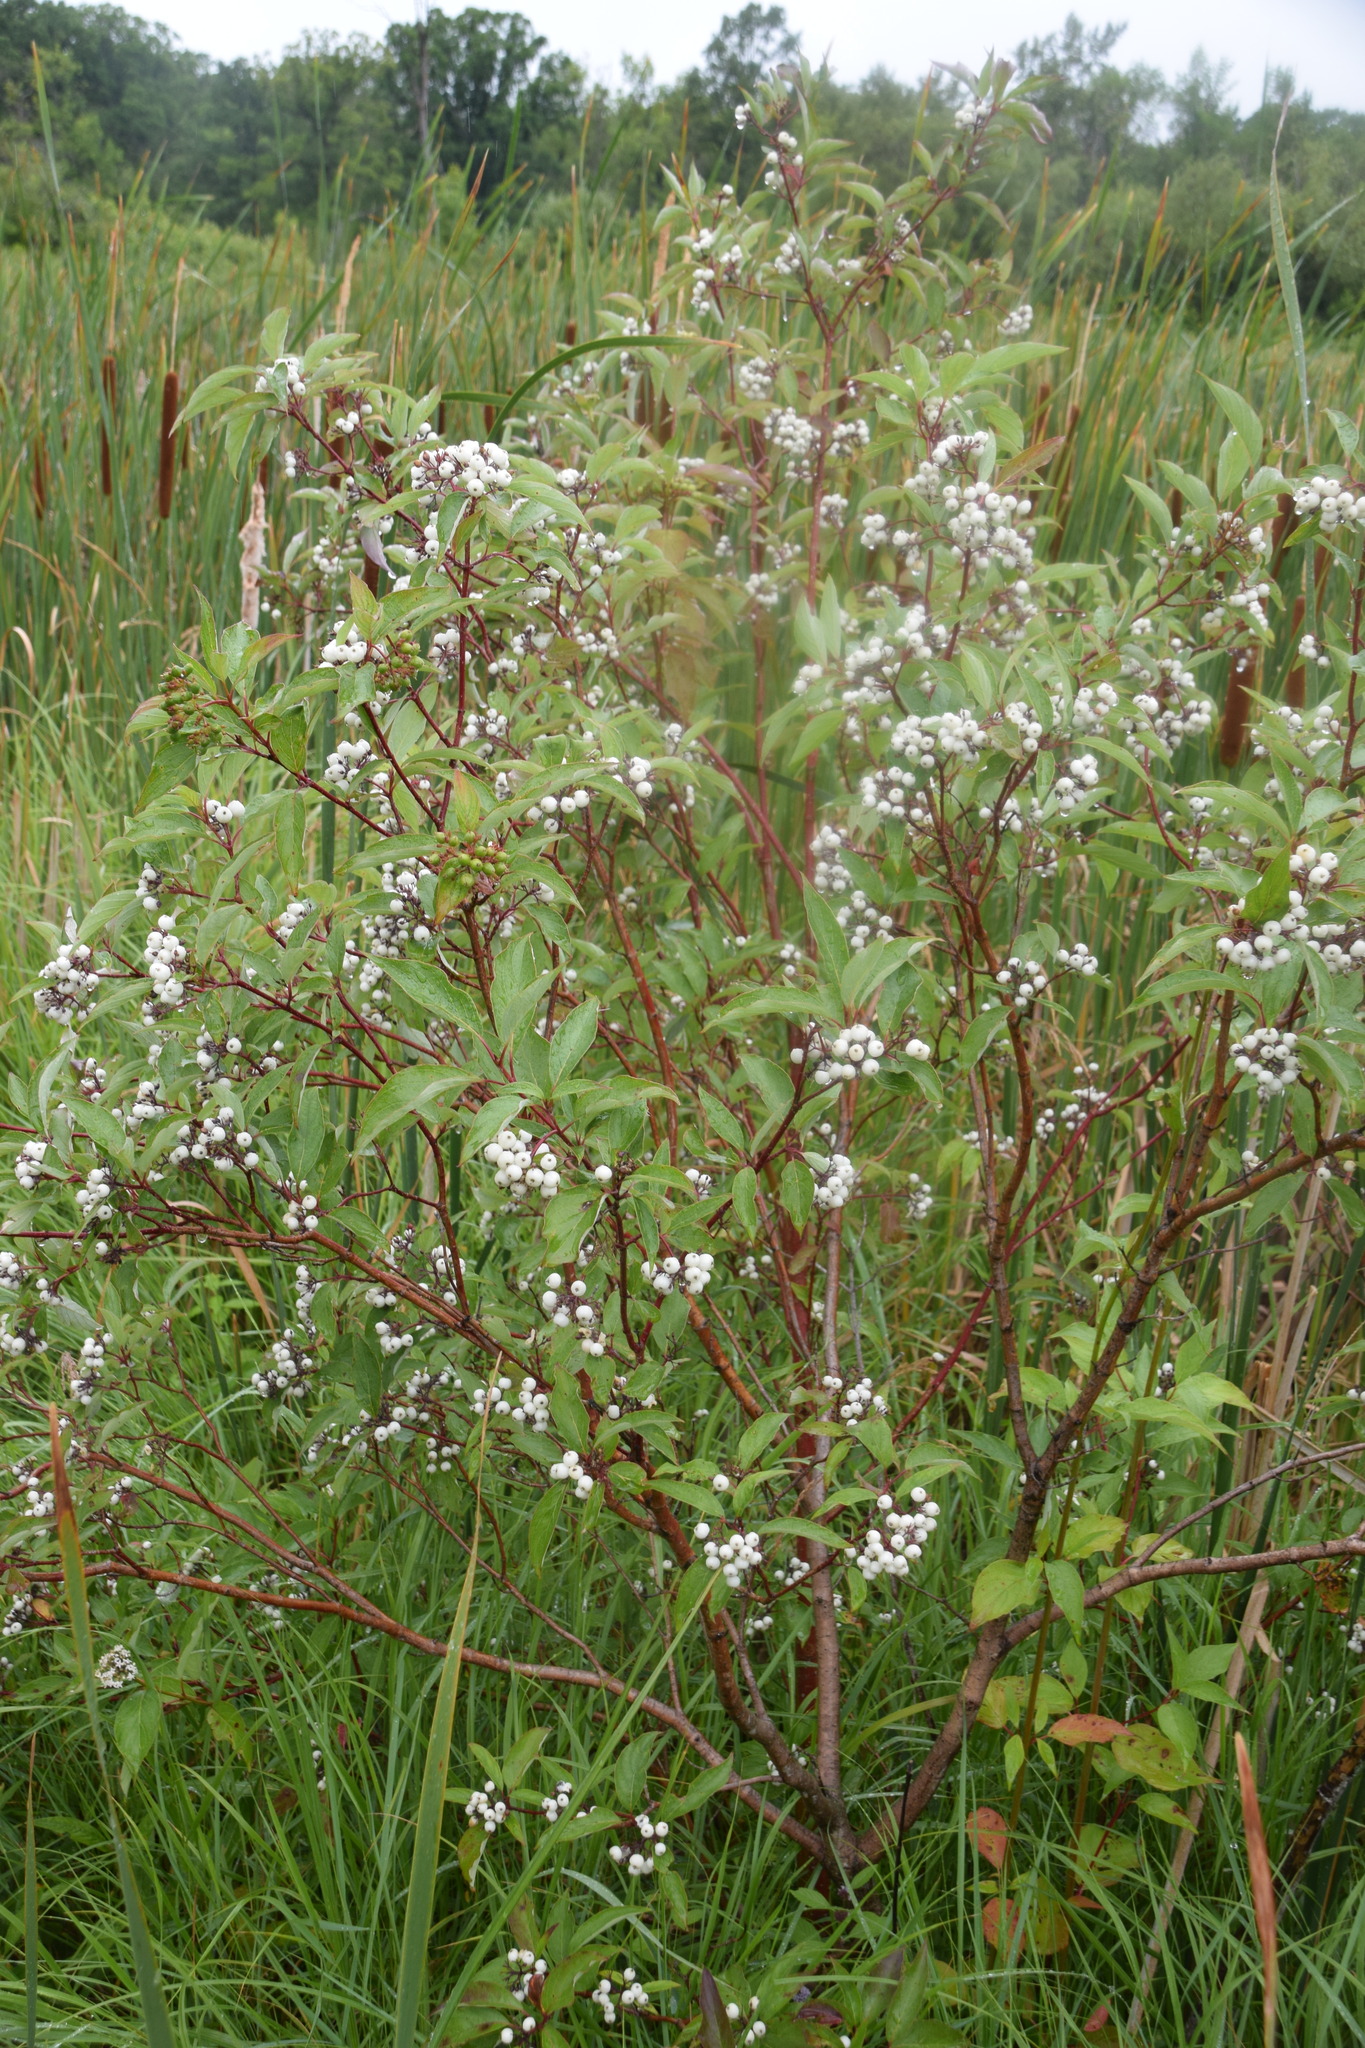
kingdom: Plantae
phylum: Tracheophyta
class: Magnoliopsida
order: Cornales
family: Cornaceae
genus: Cornus
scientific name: Cornus sericea
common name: Red-osier dogwood
